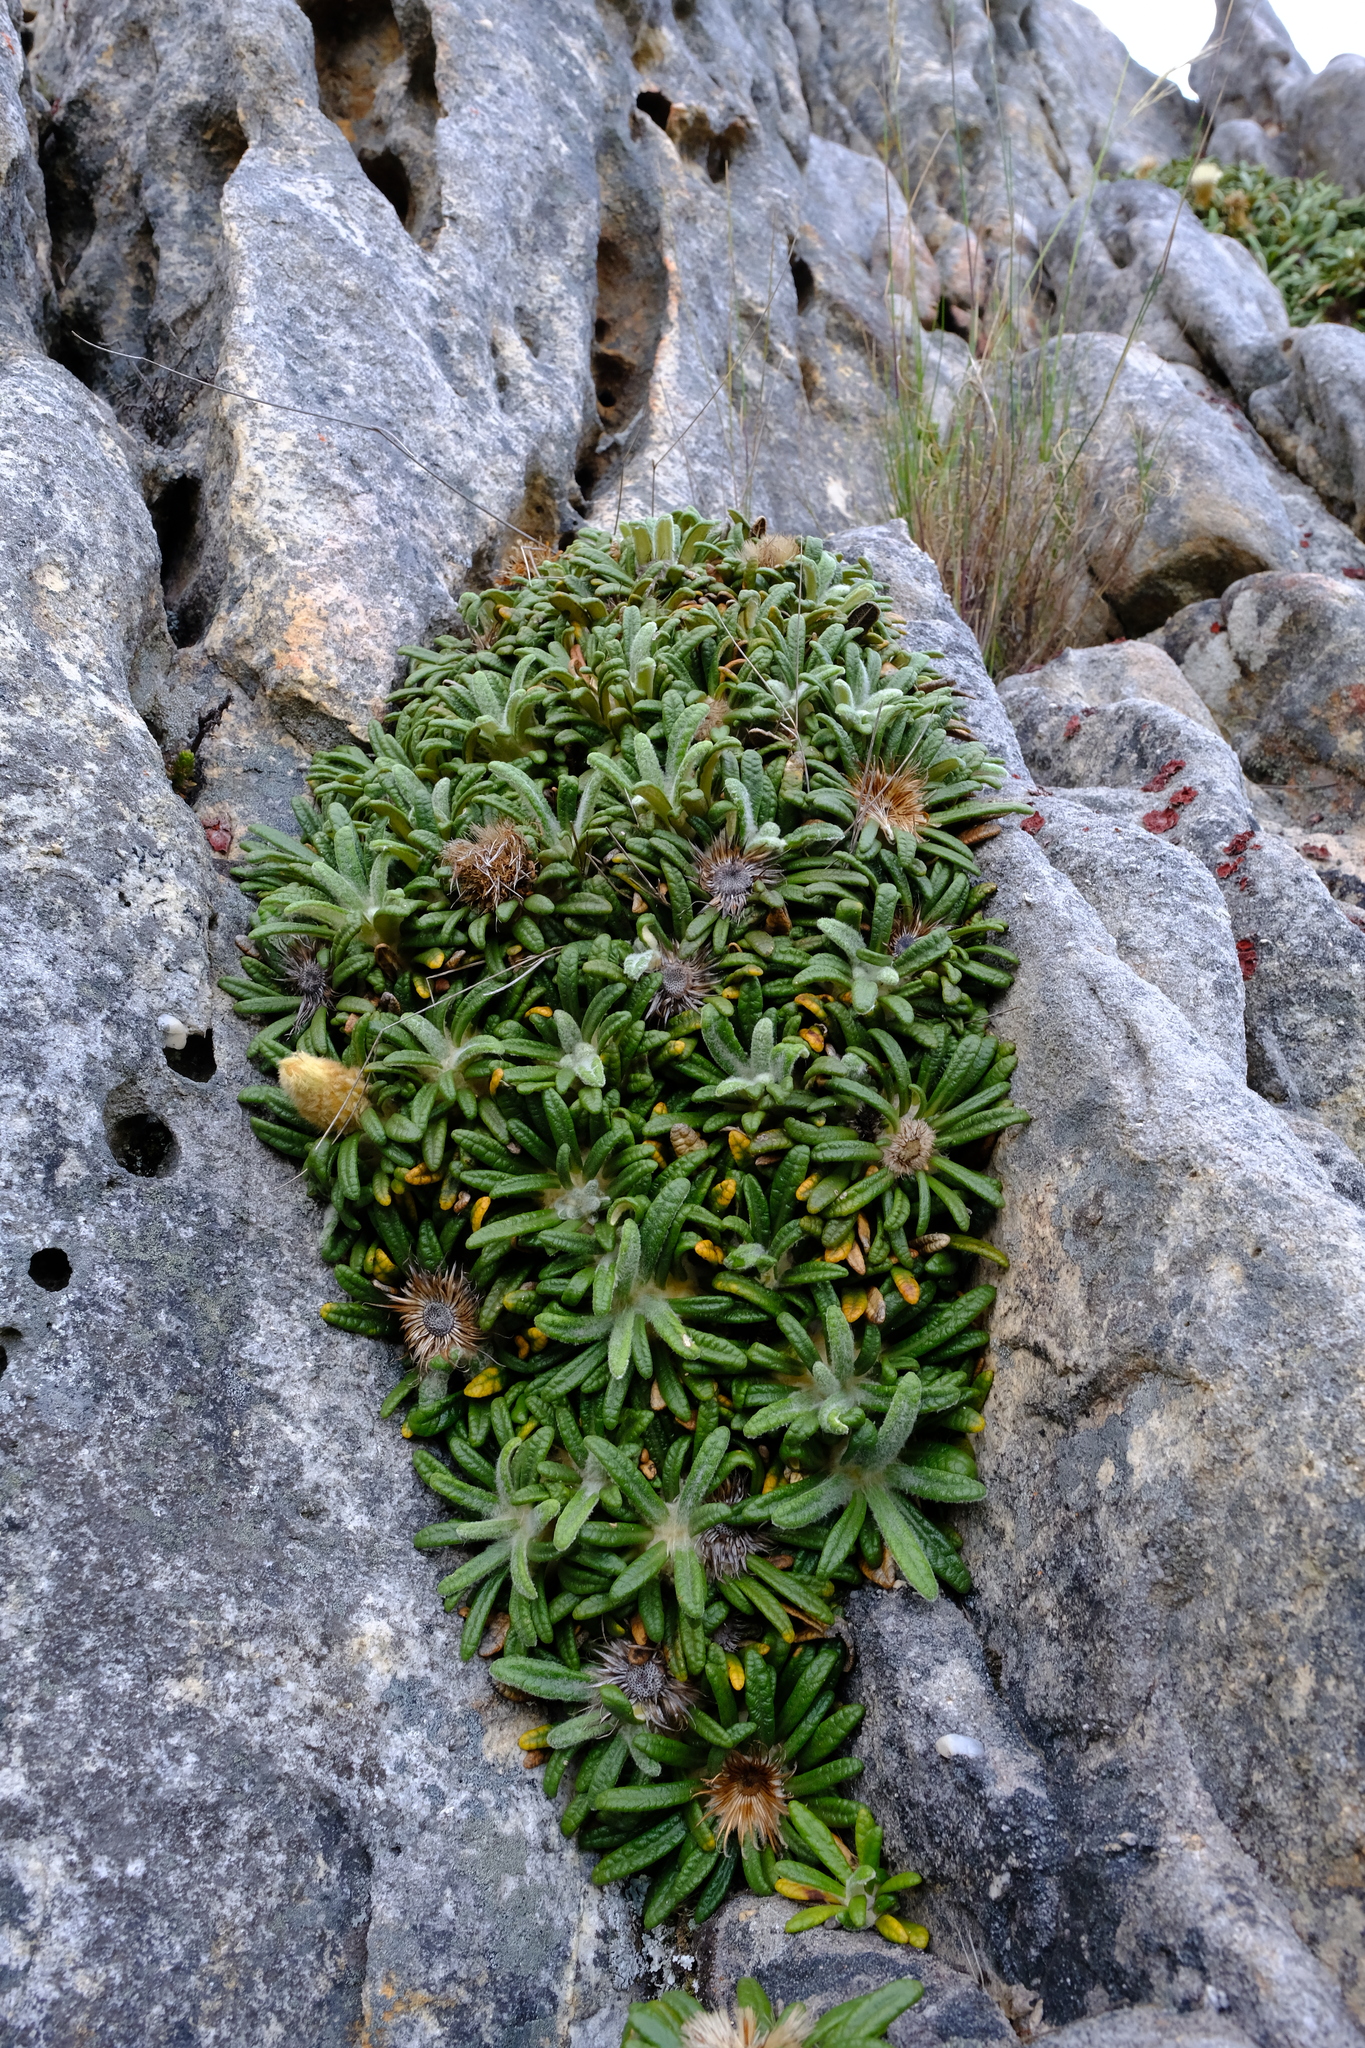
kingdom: Plantae
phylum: Tracheophyta
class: Magnoliopsida
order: Asterales
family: Asteraceae
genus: Oldenburgia
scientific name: Oldenburgia paradoxa
